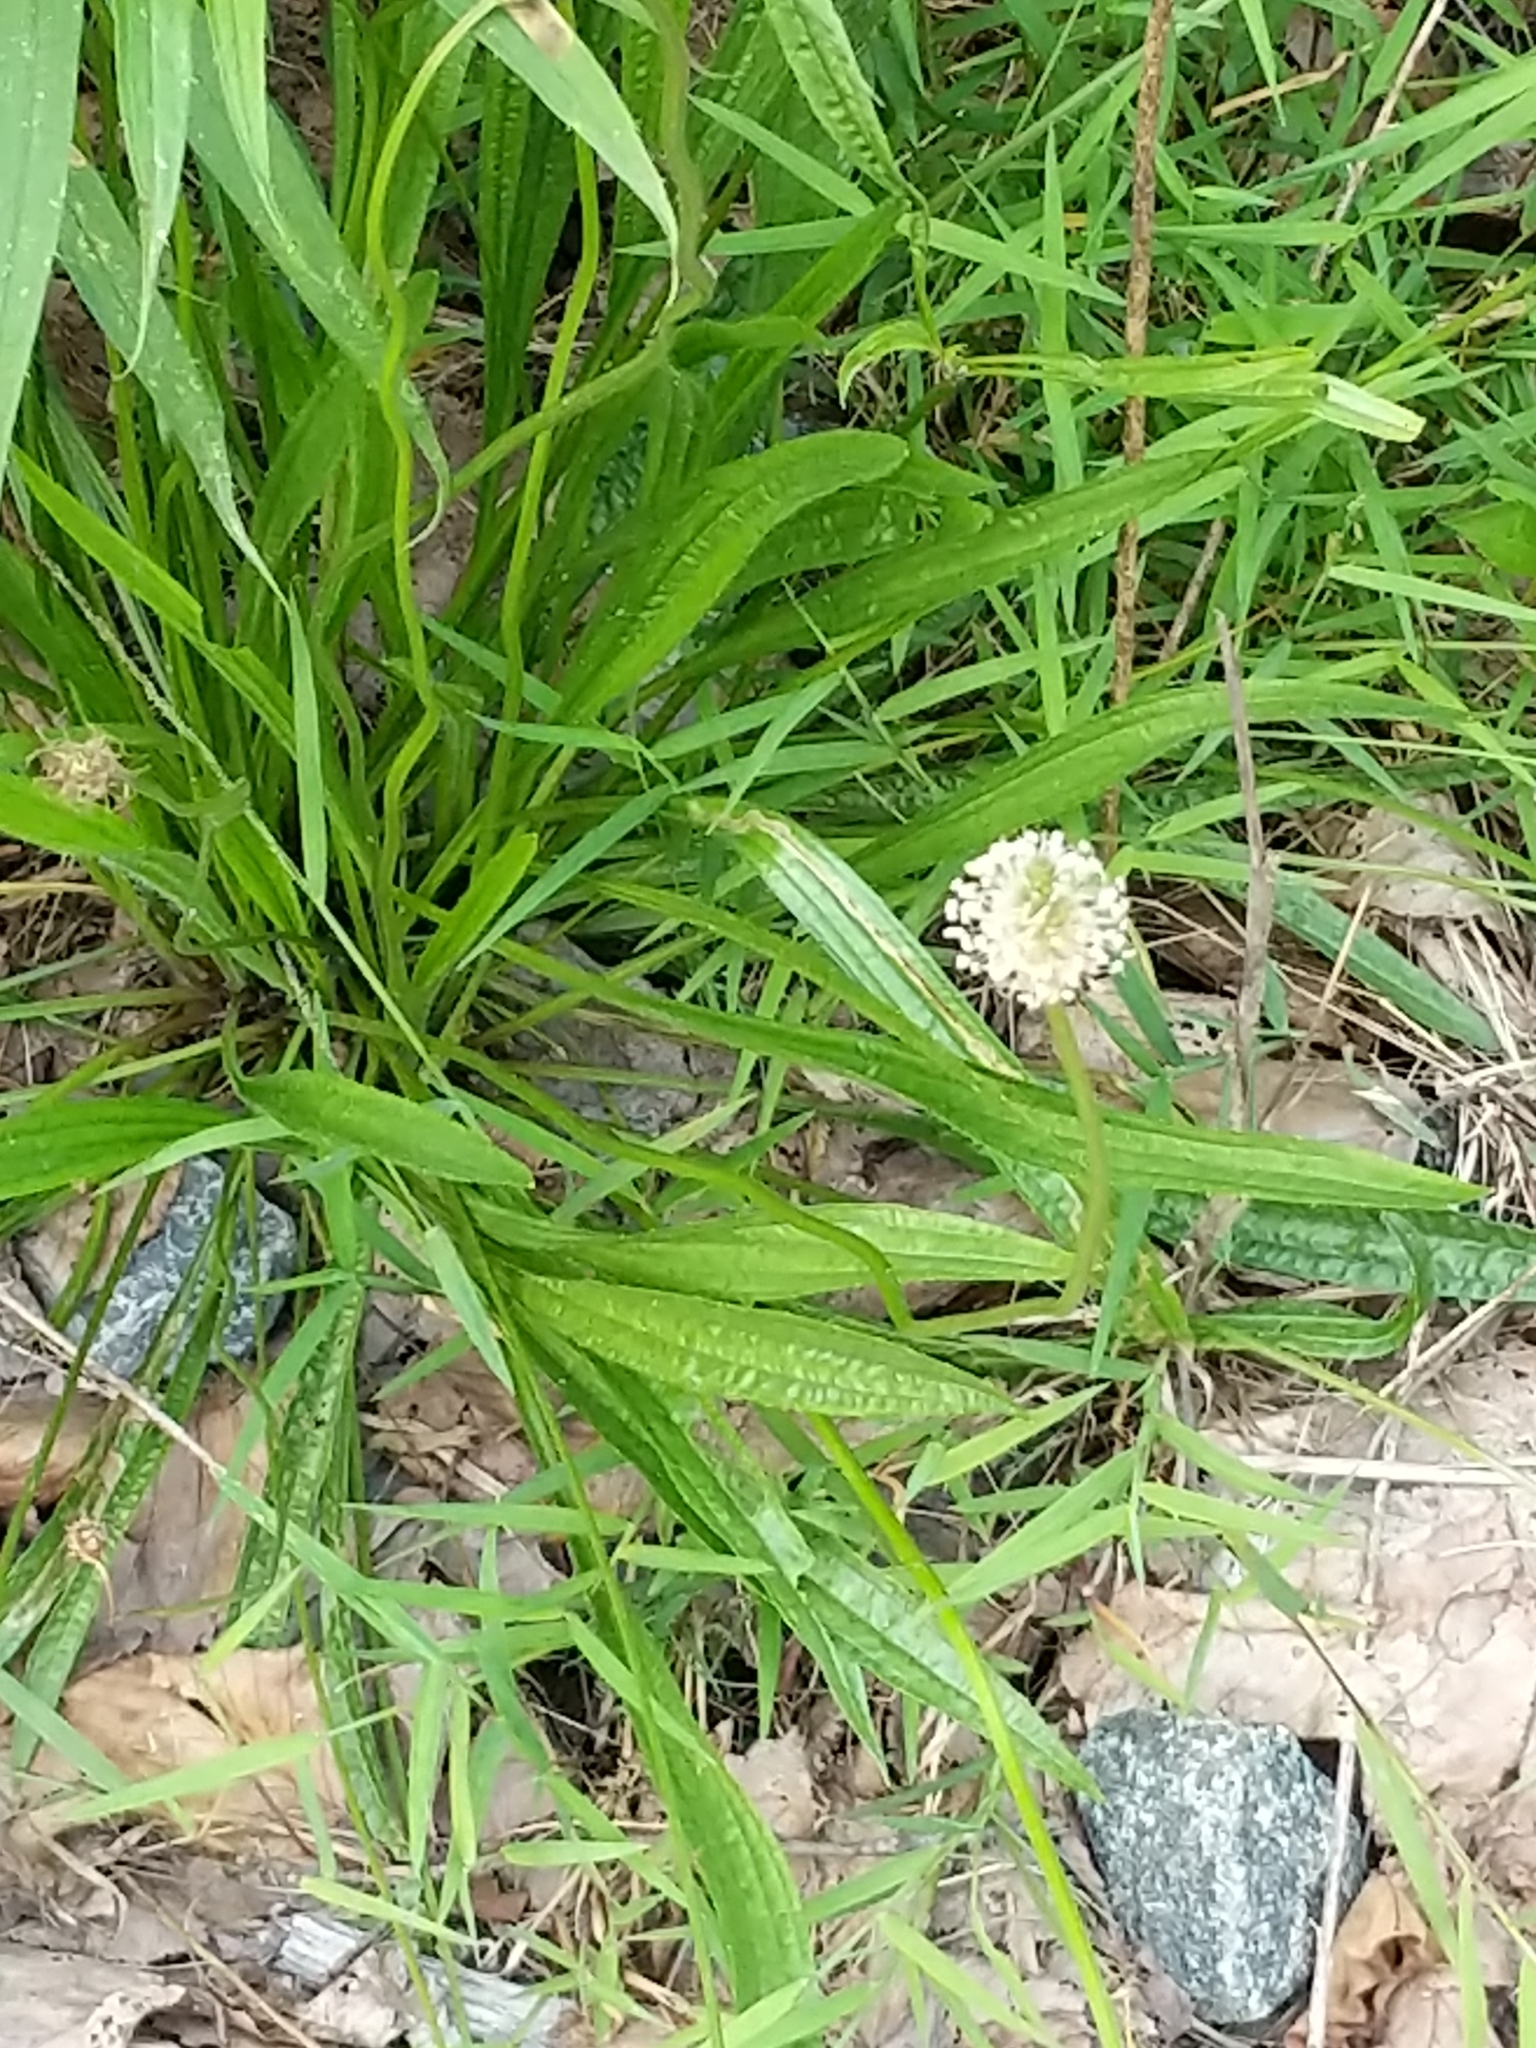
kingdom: Plantae
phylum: Tracheophyta
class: Magnoliopsida
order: Lamiales
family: Plantaginaceae
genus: Plantago
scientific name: Plantago lanceolata
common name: Ribwort plantain
